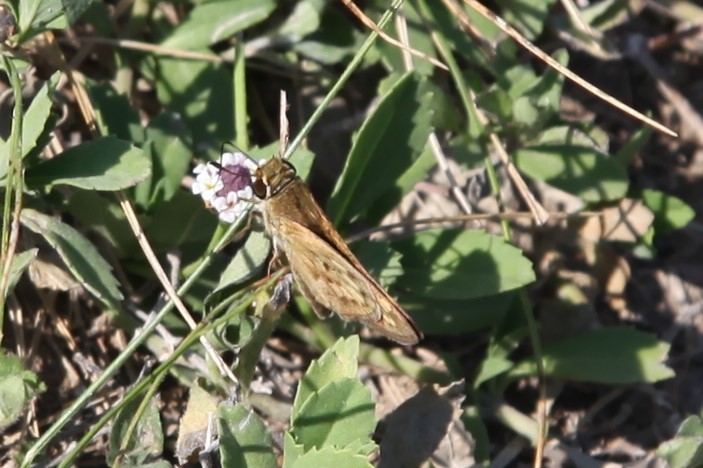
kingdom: Animalia
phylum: Arthropoda
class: Insecta
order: Lepidoptera
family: Hesperiidae
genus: Atalopedes
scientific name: Atalopedes
